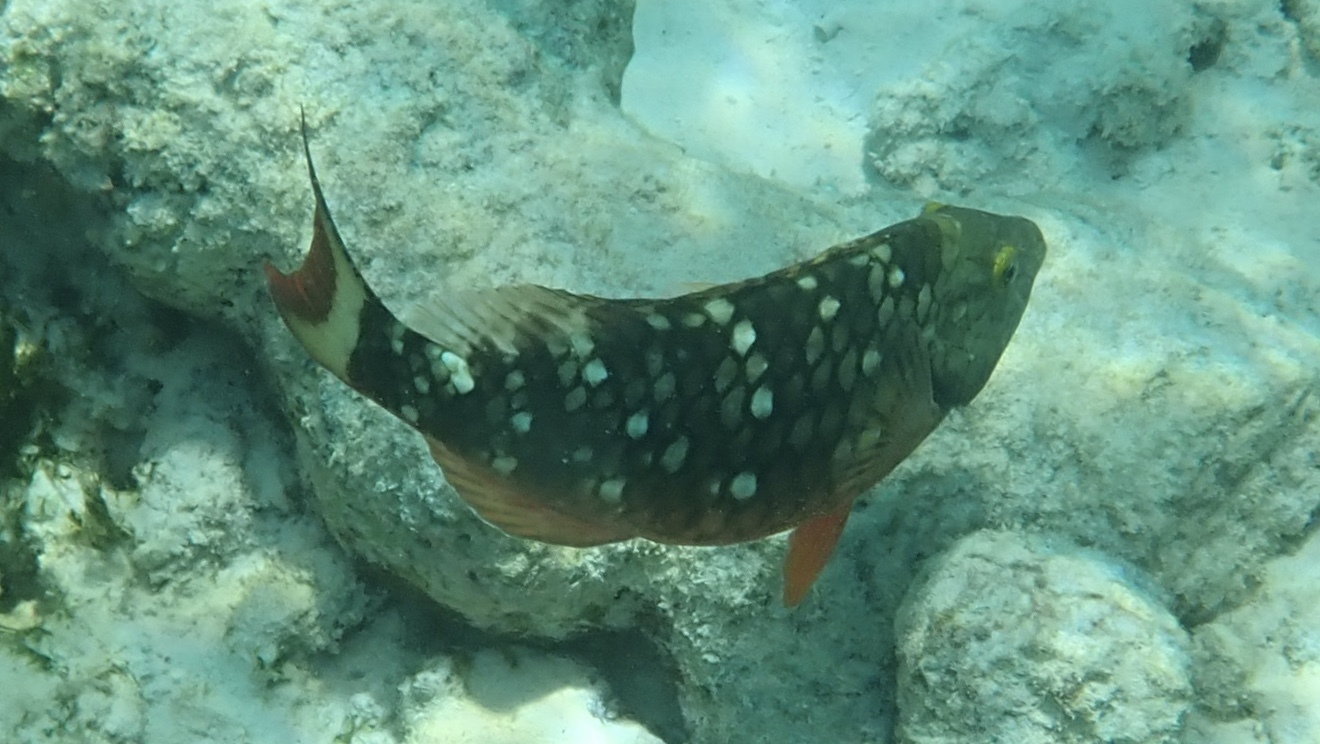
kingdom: Animalia
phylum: Chordata
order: Perciformes
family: Scaridae
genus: Sparisoma
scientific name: Sparisoma viride
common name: Stoplight parrotfish
